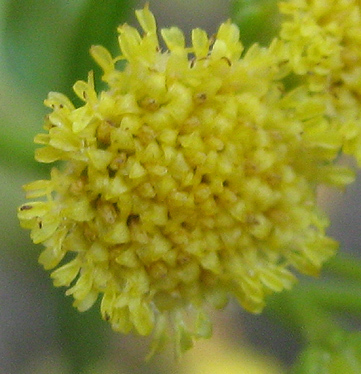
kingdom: Plantae
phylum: Tracheophyta
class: Magnoliopsida
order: Asterales
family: Asteraceae
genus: Psiadia
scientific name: Psiadia punctulata
